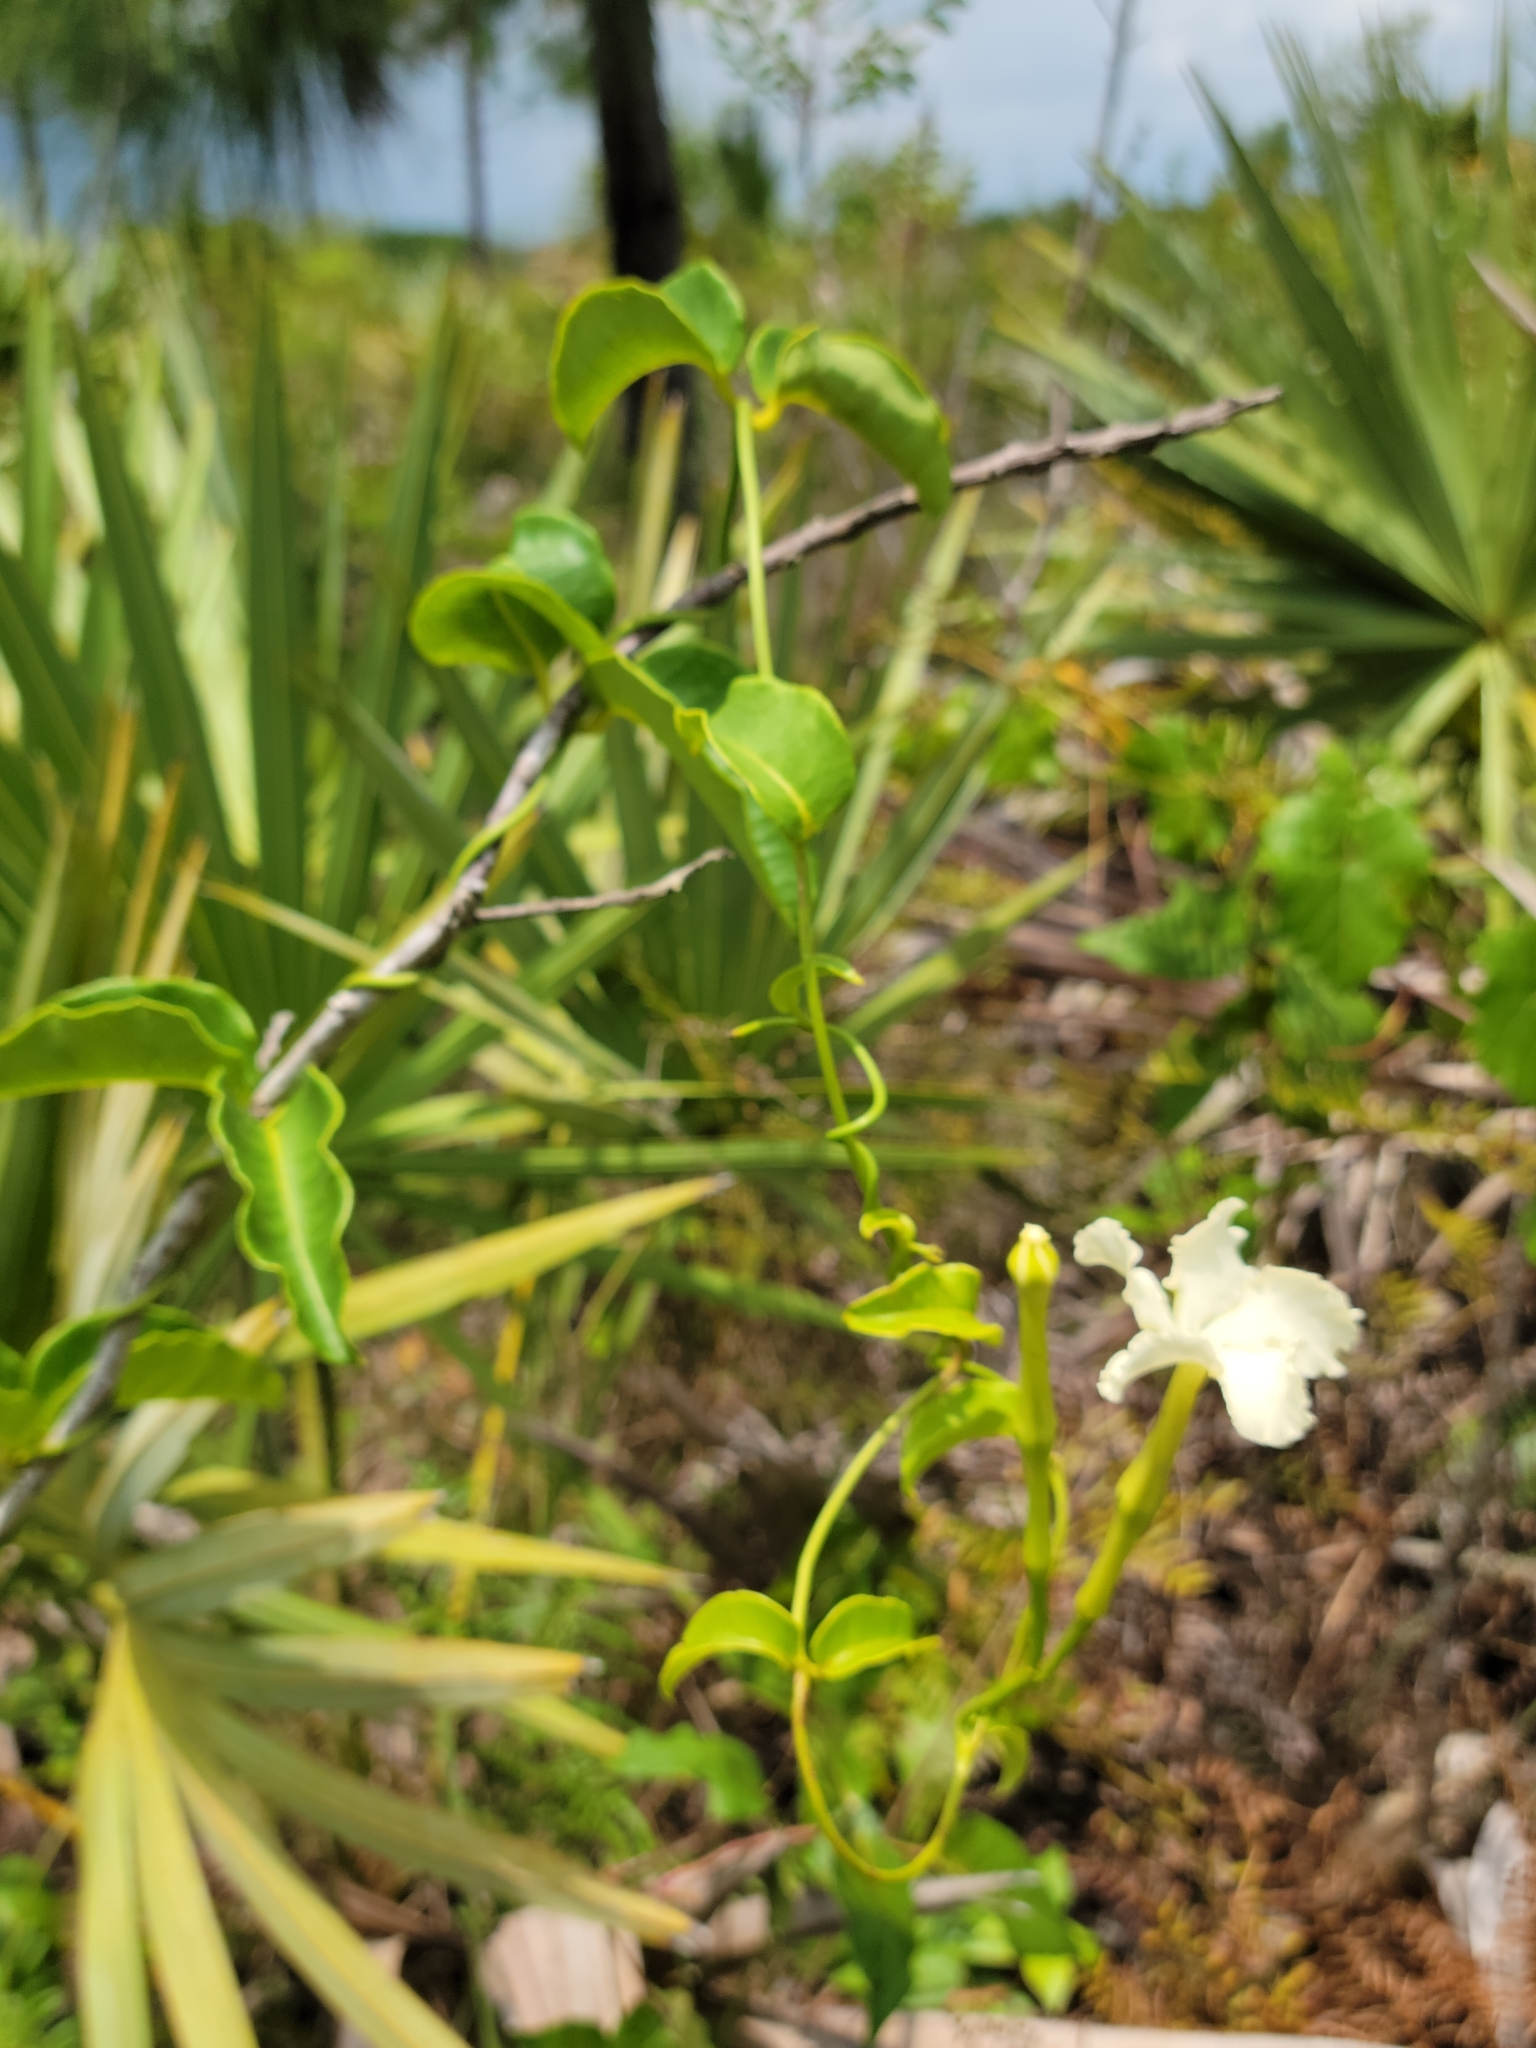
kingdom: Plantae
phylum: Tracheophyta
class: Magnoliopsida
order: Gentianales
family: Apocynaceae
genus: Echites
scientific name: Echites umbellatus
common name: Devil's potato
